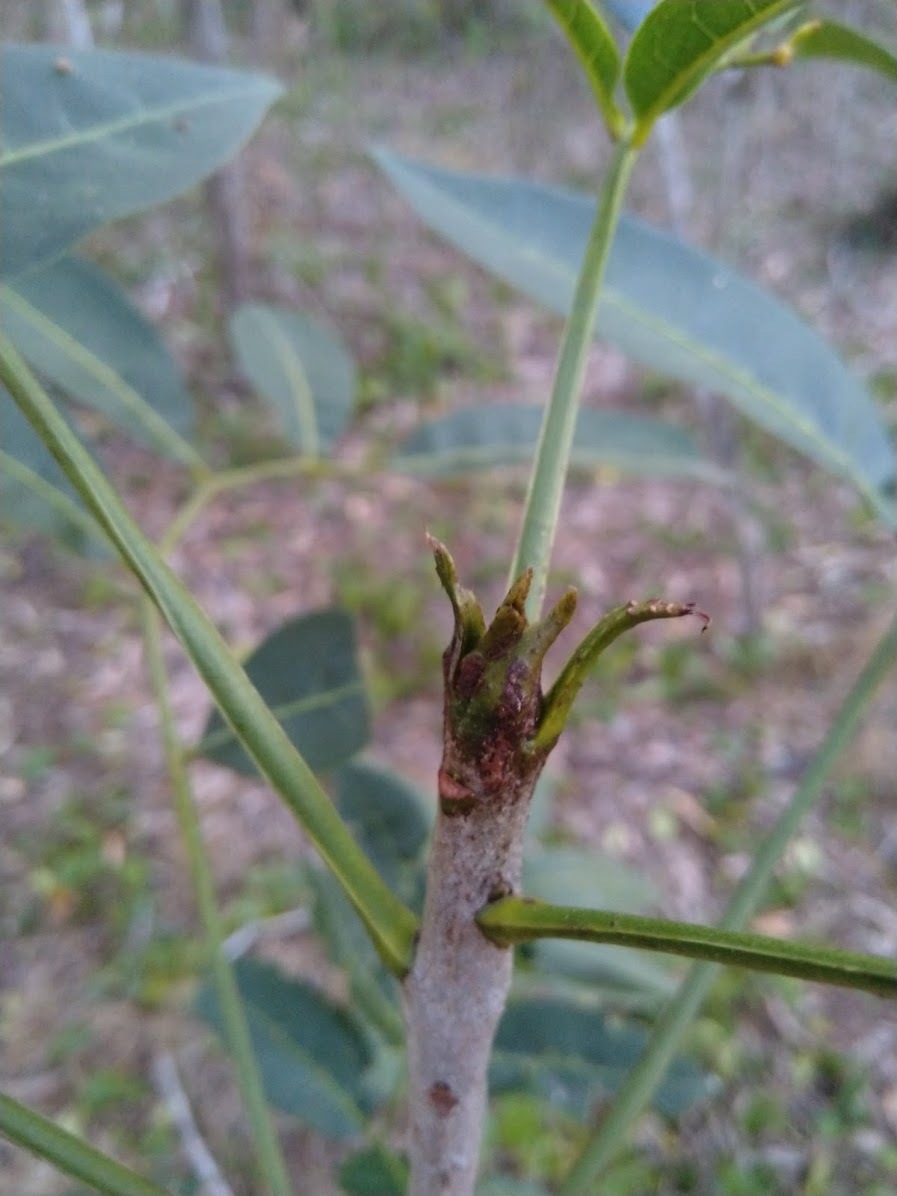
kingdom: Plantae
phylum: Tracheophyta
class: Magnoliopsida
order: Sapindales
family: Rutaceae
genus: Flindersia
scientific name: Flindersia australis
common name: Australian-teak
